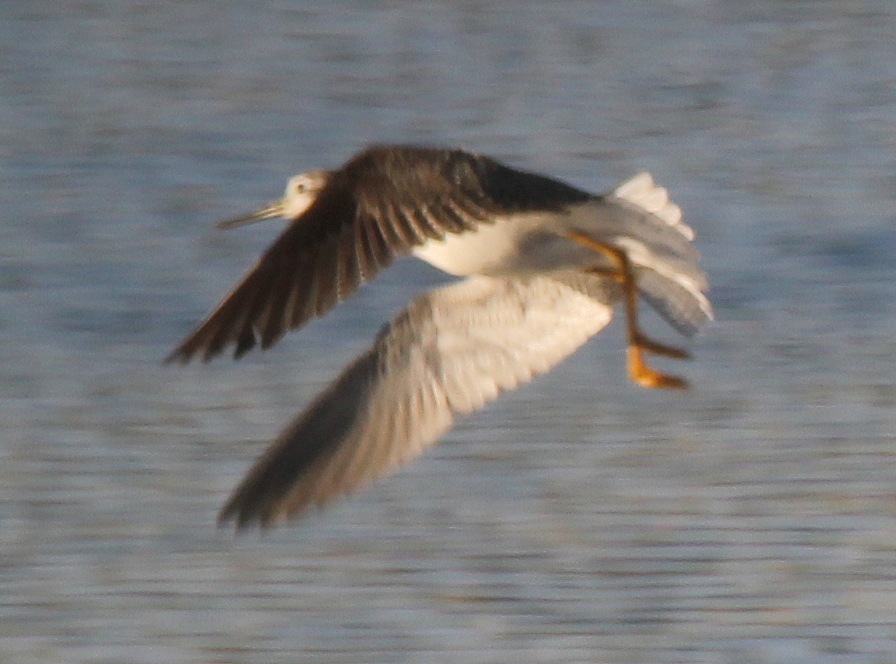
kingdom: Animalia
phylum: Chordata
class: Aves
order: Charadriiformes
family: Scolopacidae
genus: Tringa
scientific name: Tringa melanoleuca
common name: Greater yellowlegs
